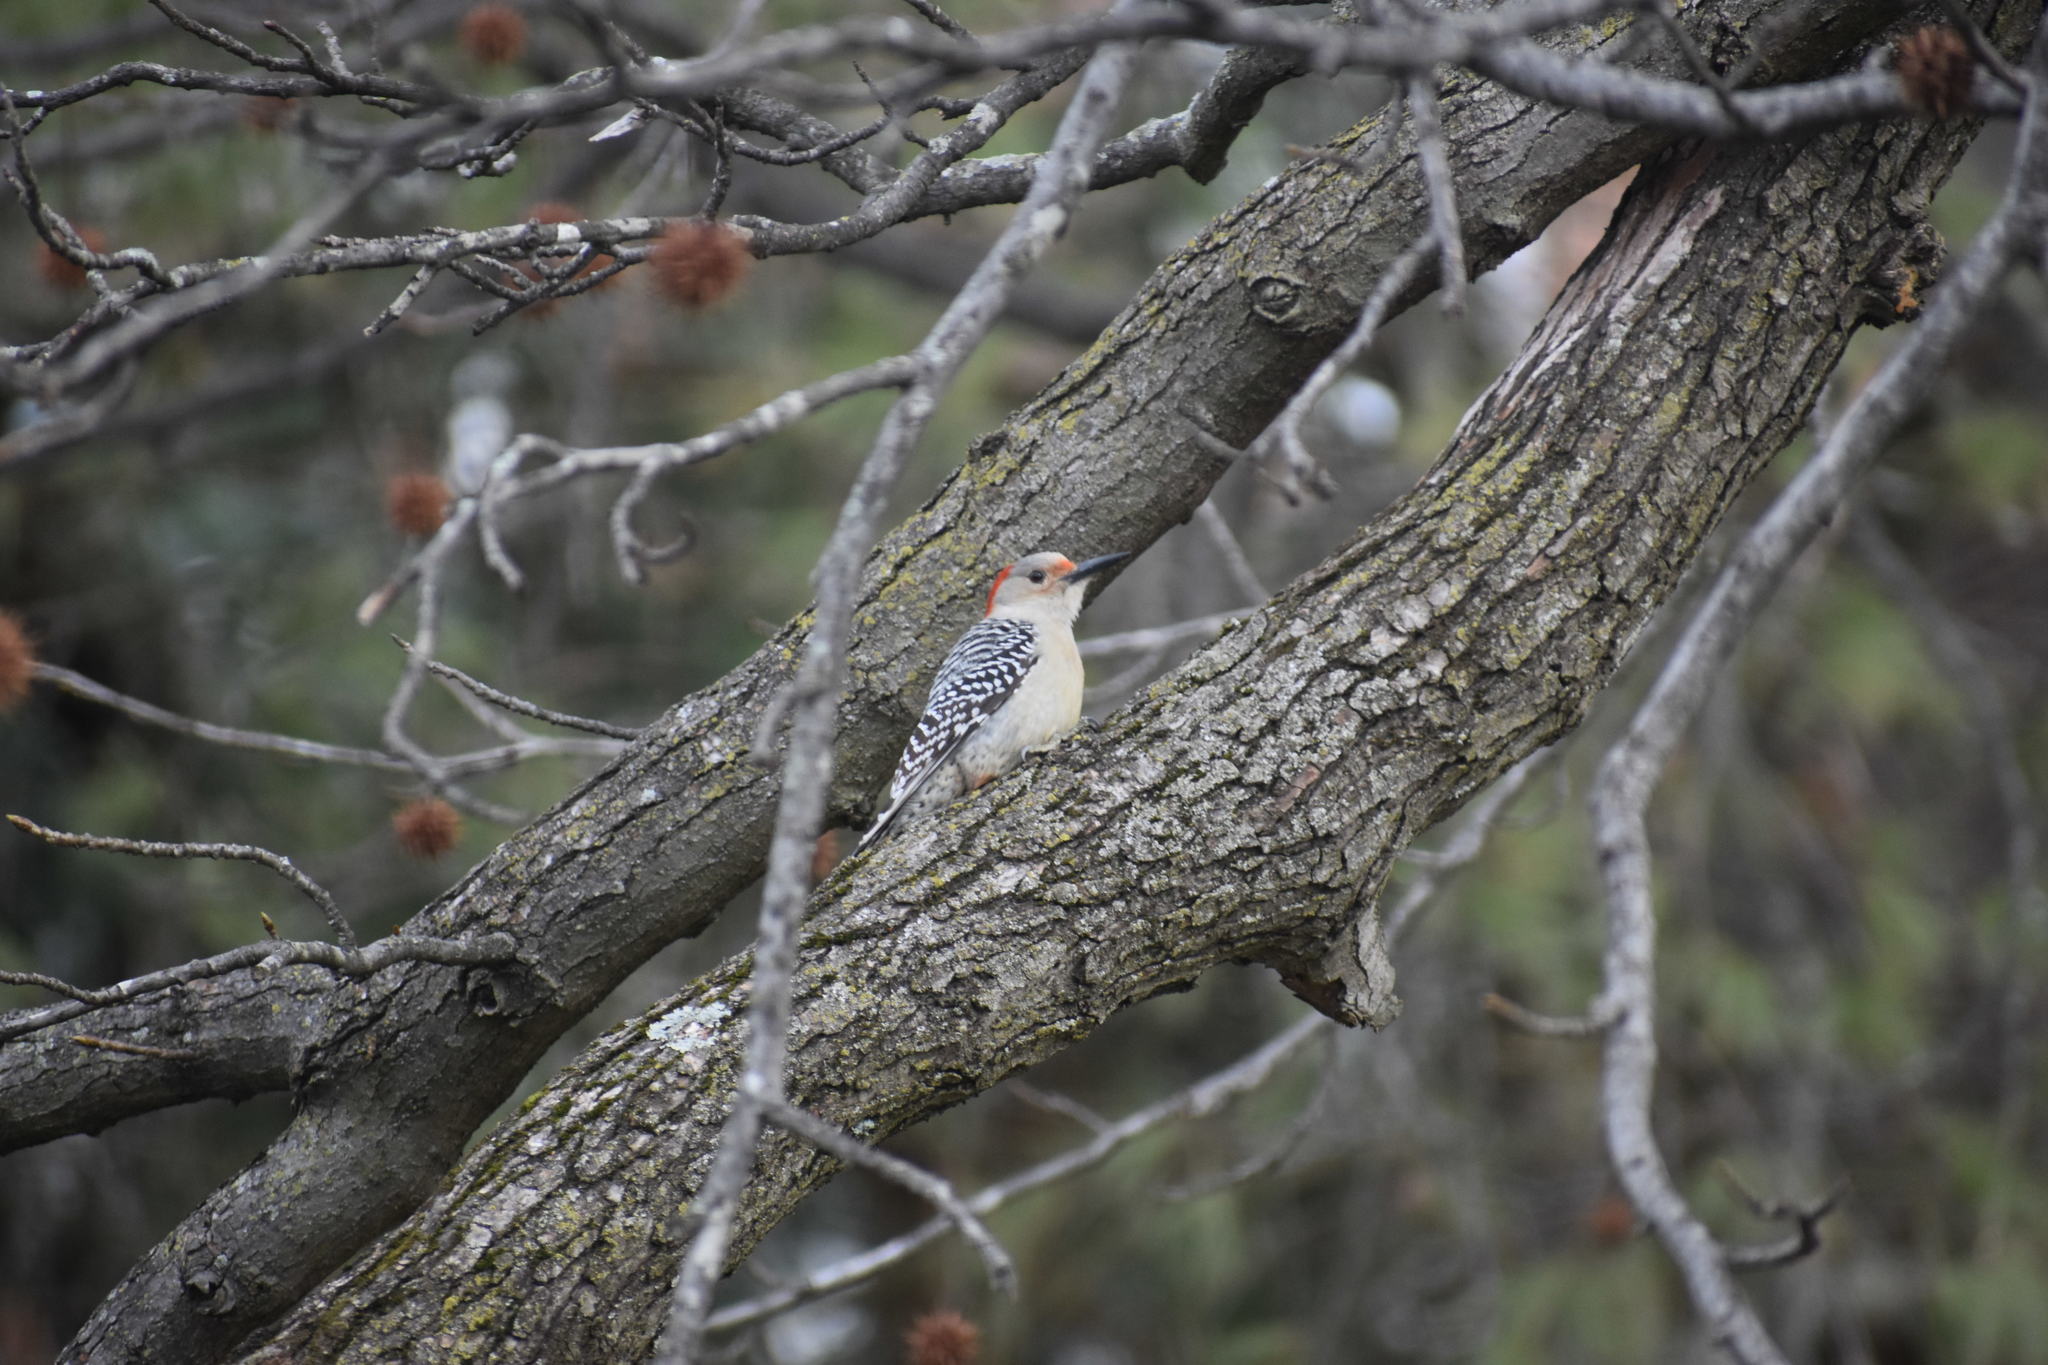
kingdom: Animalia
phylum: Chordata
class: Aves
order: Piciformes
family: Picidae
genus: Melanerpes
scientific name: Melanerpes carolinus
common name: Red-bellied woodpecker
